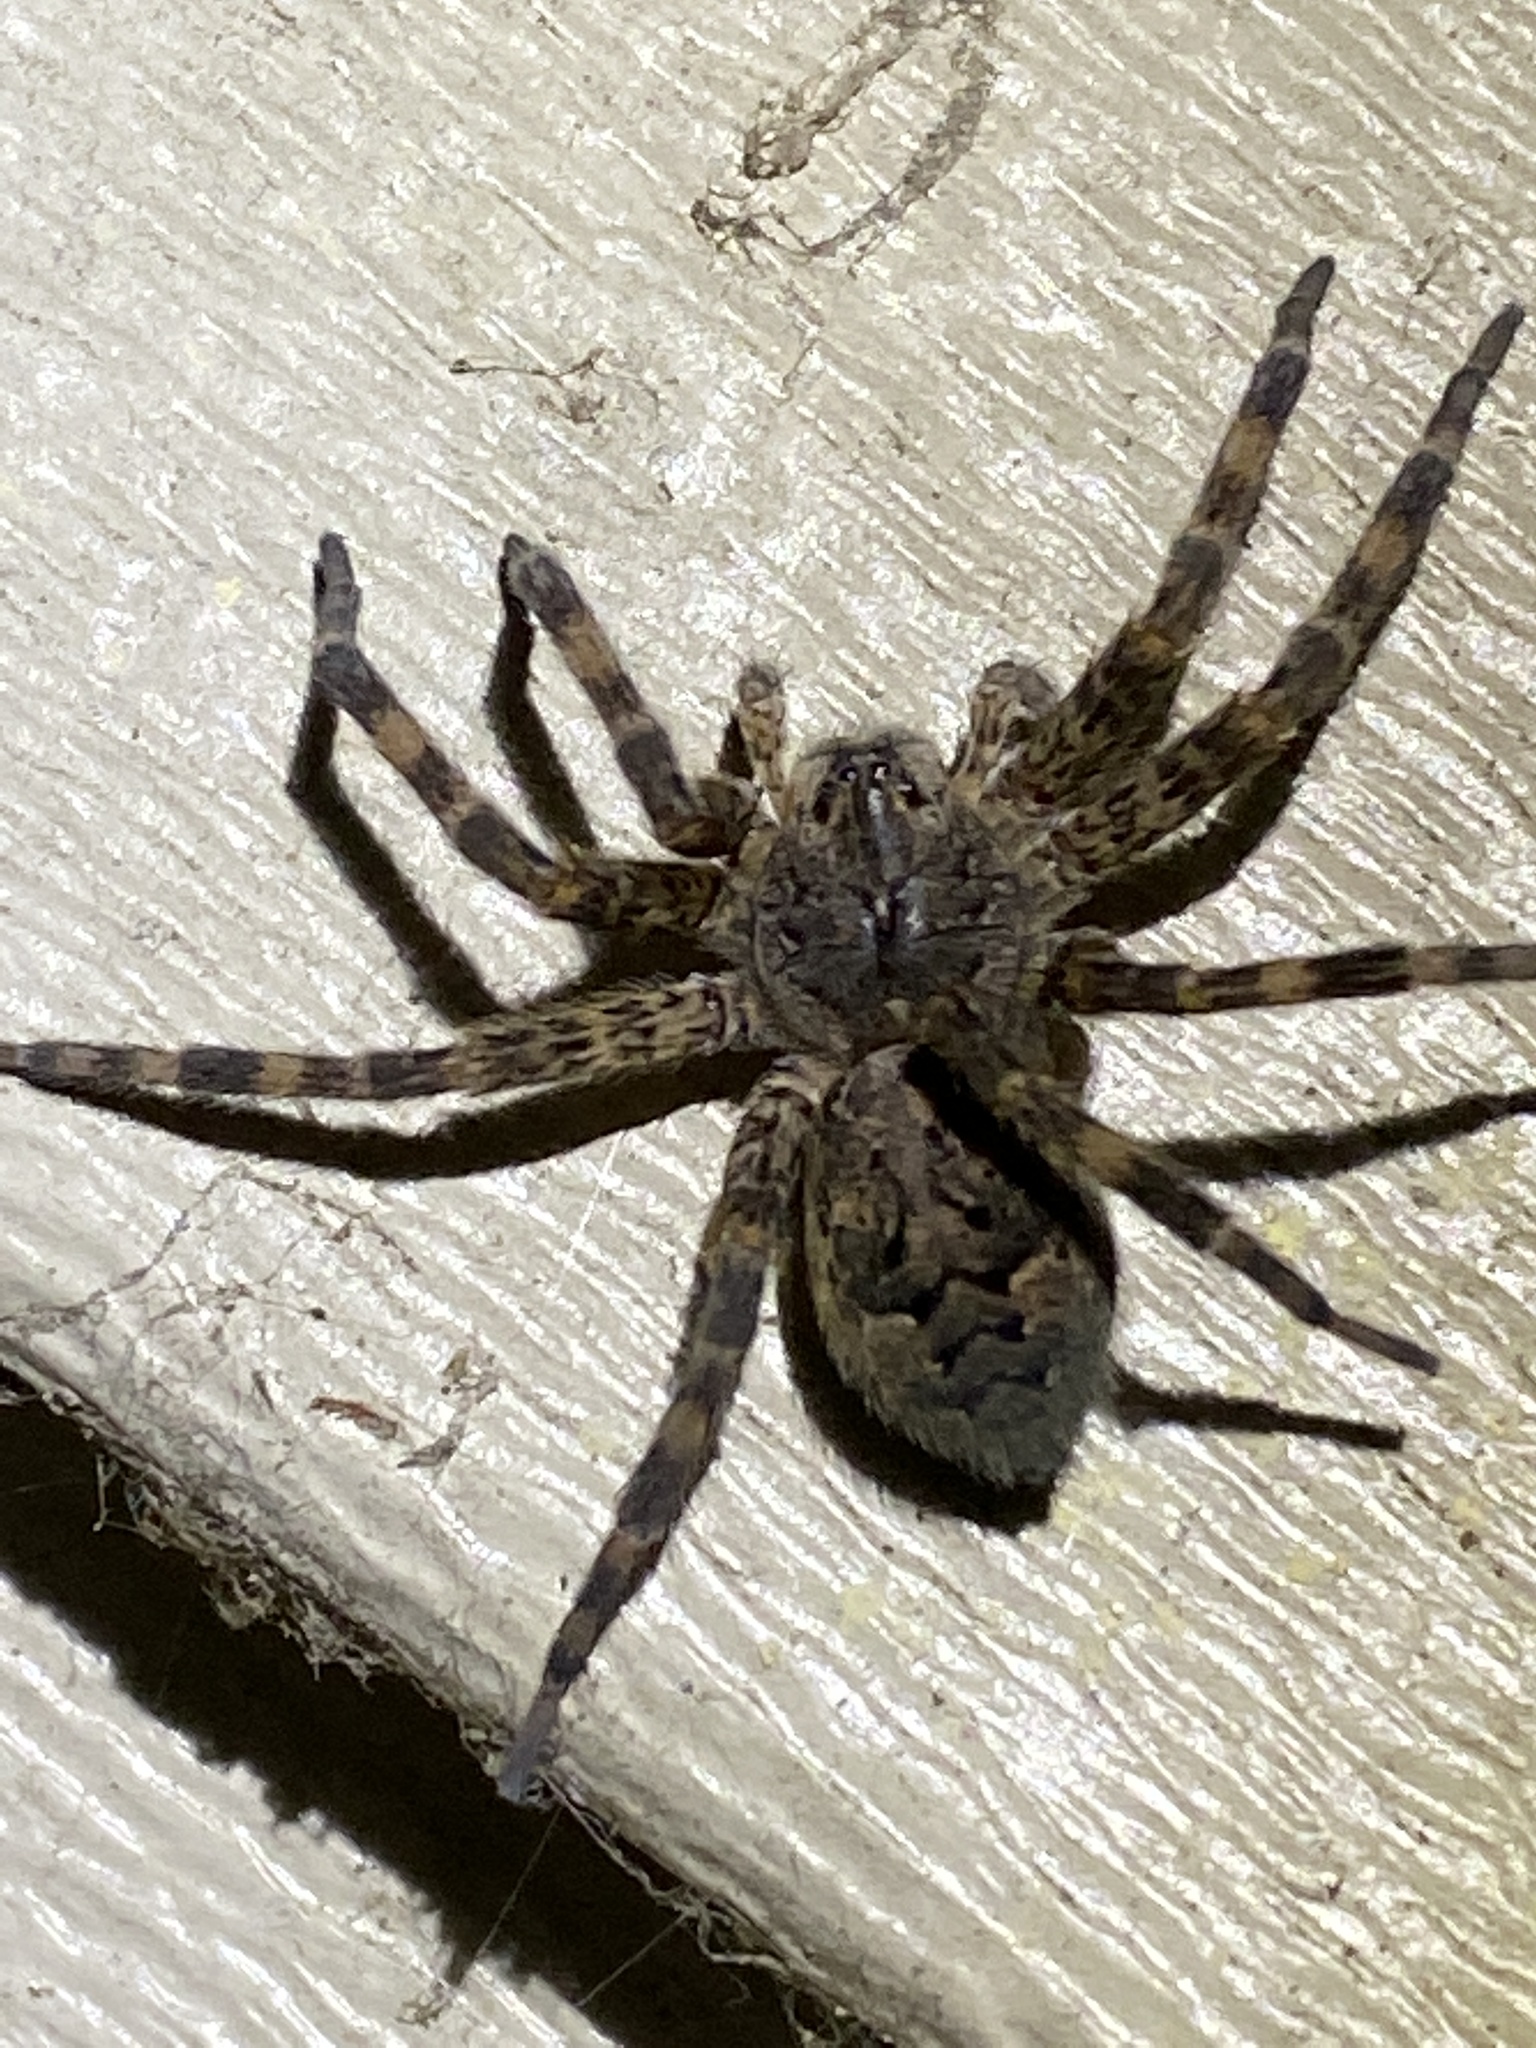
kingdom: Animalia
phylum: Arthropoda
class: Arachnida
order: Araneae
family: Pisauridae
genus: Dolomedes
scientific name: Dolomedes tenebrosus
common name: Dark fishing spider
